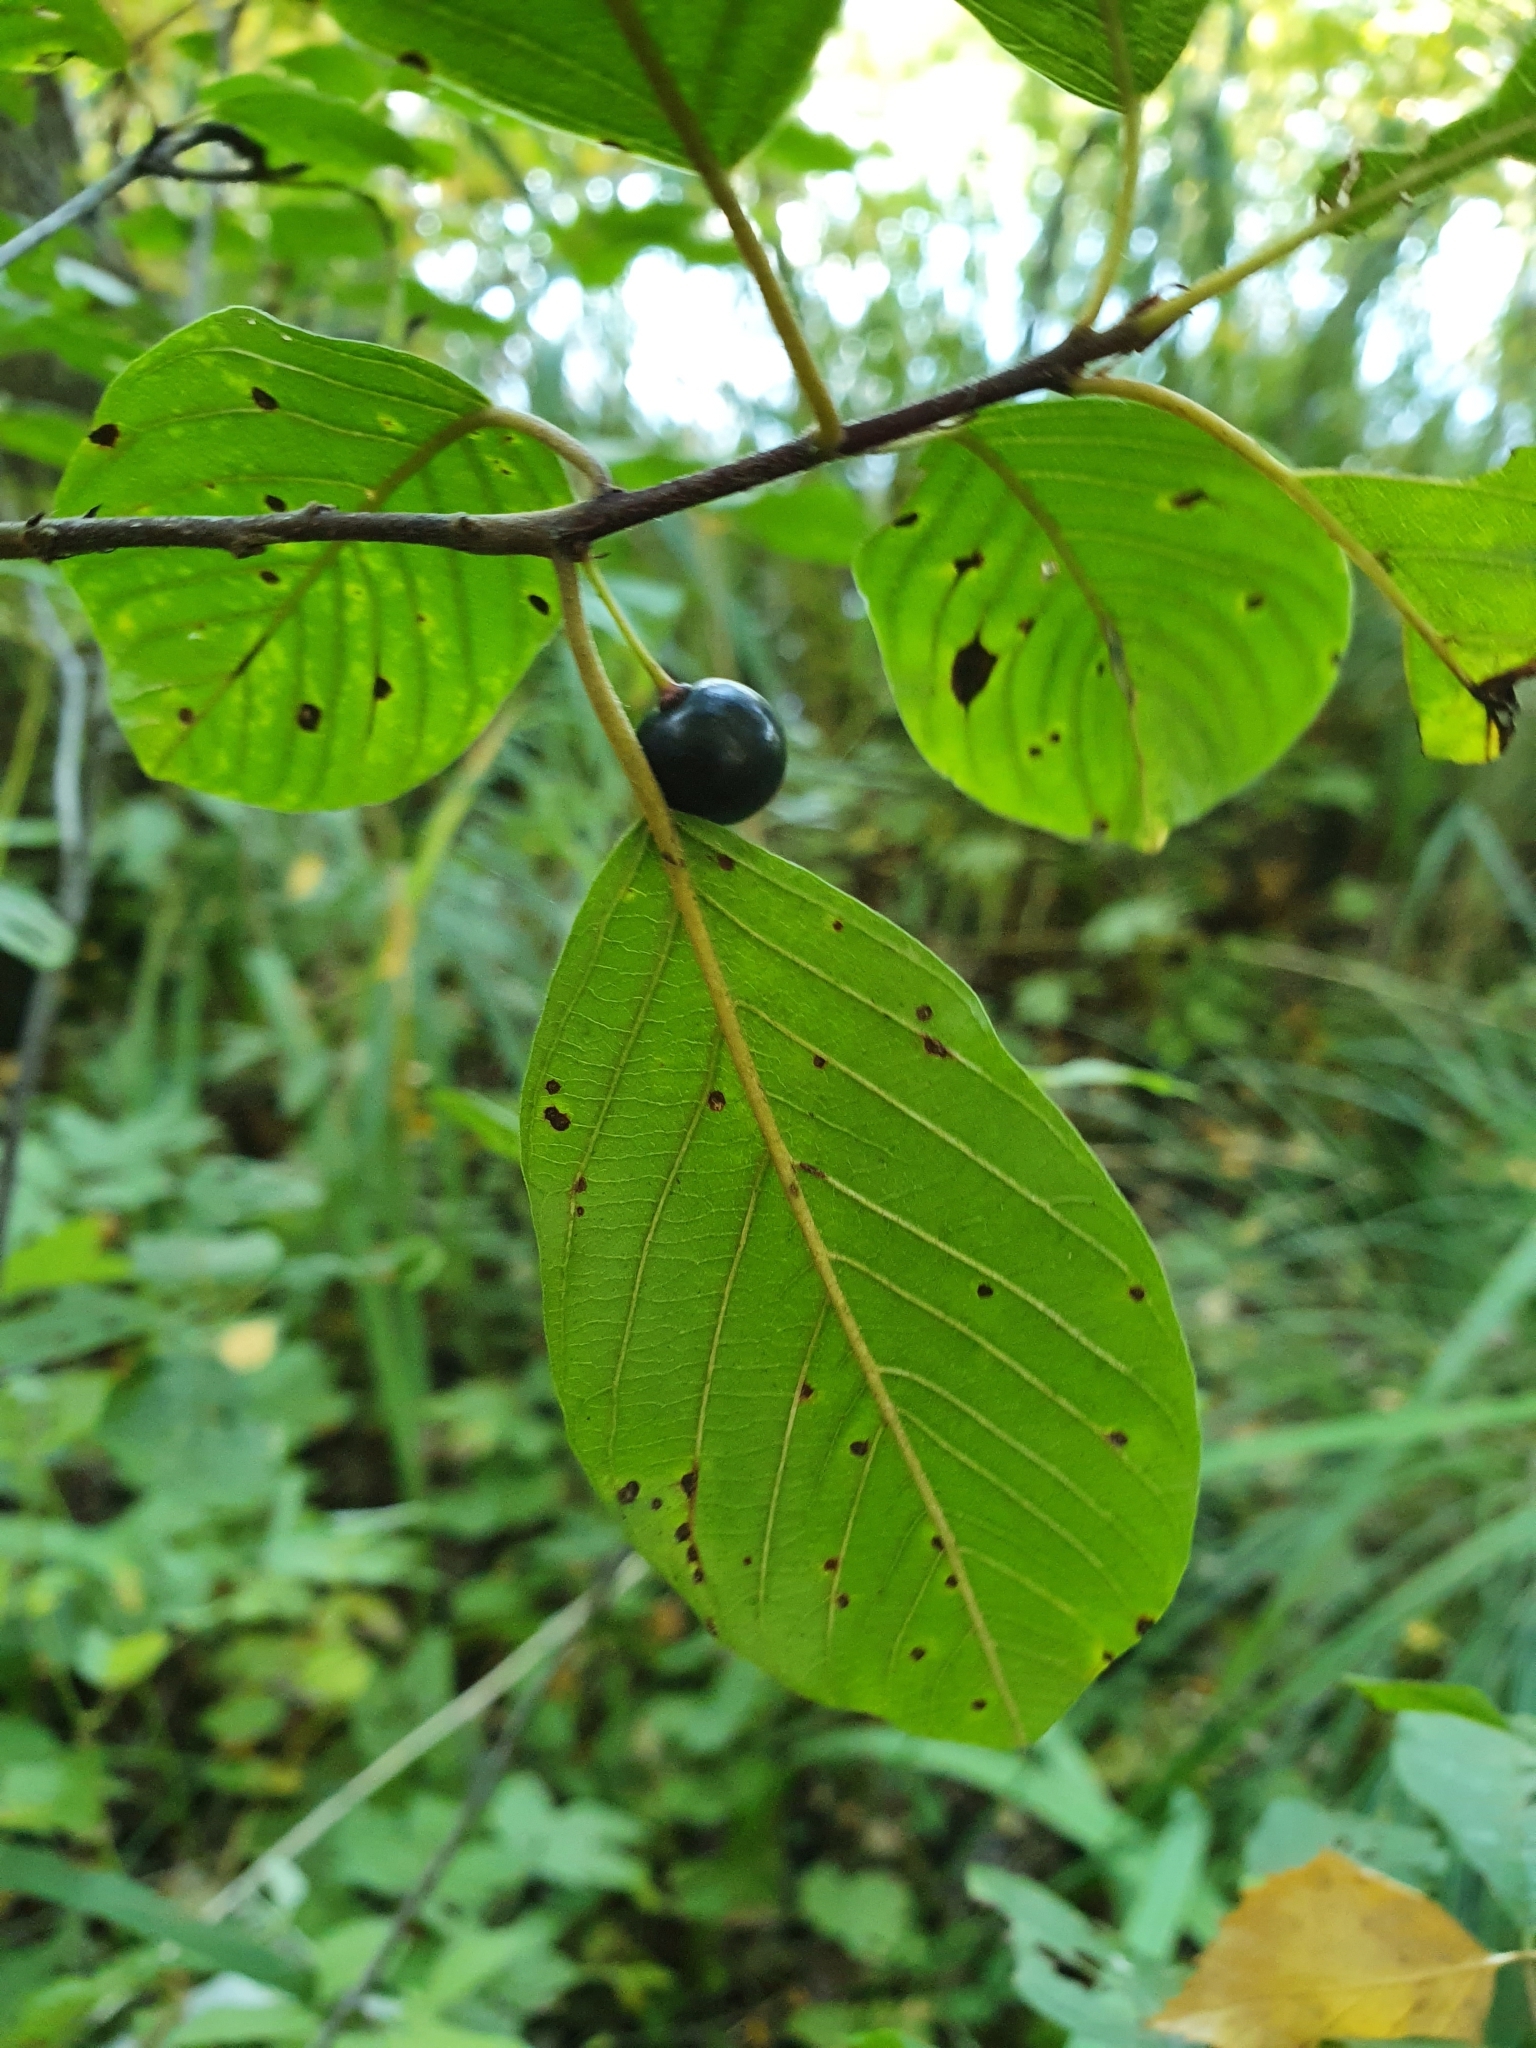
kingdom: Plantae
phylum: Tracheophyta
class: Magnoliopsida
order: Rosales
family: Rhamnaceae
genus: Frangula
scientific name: Frangula alnus
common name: Alder buckthorn
